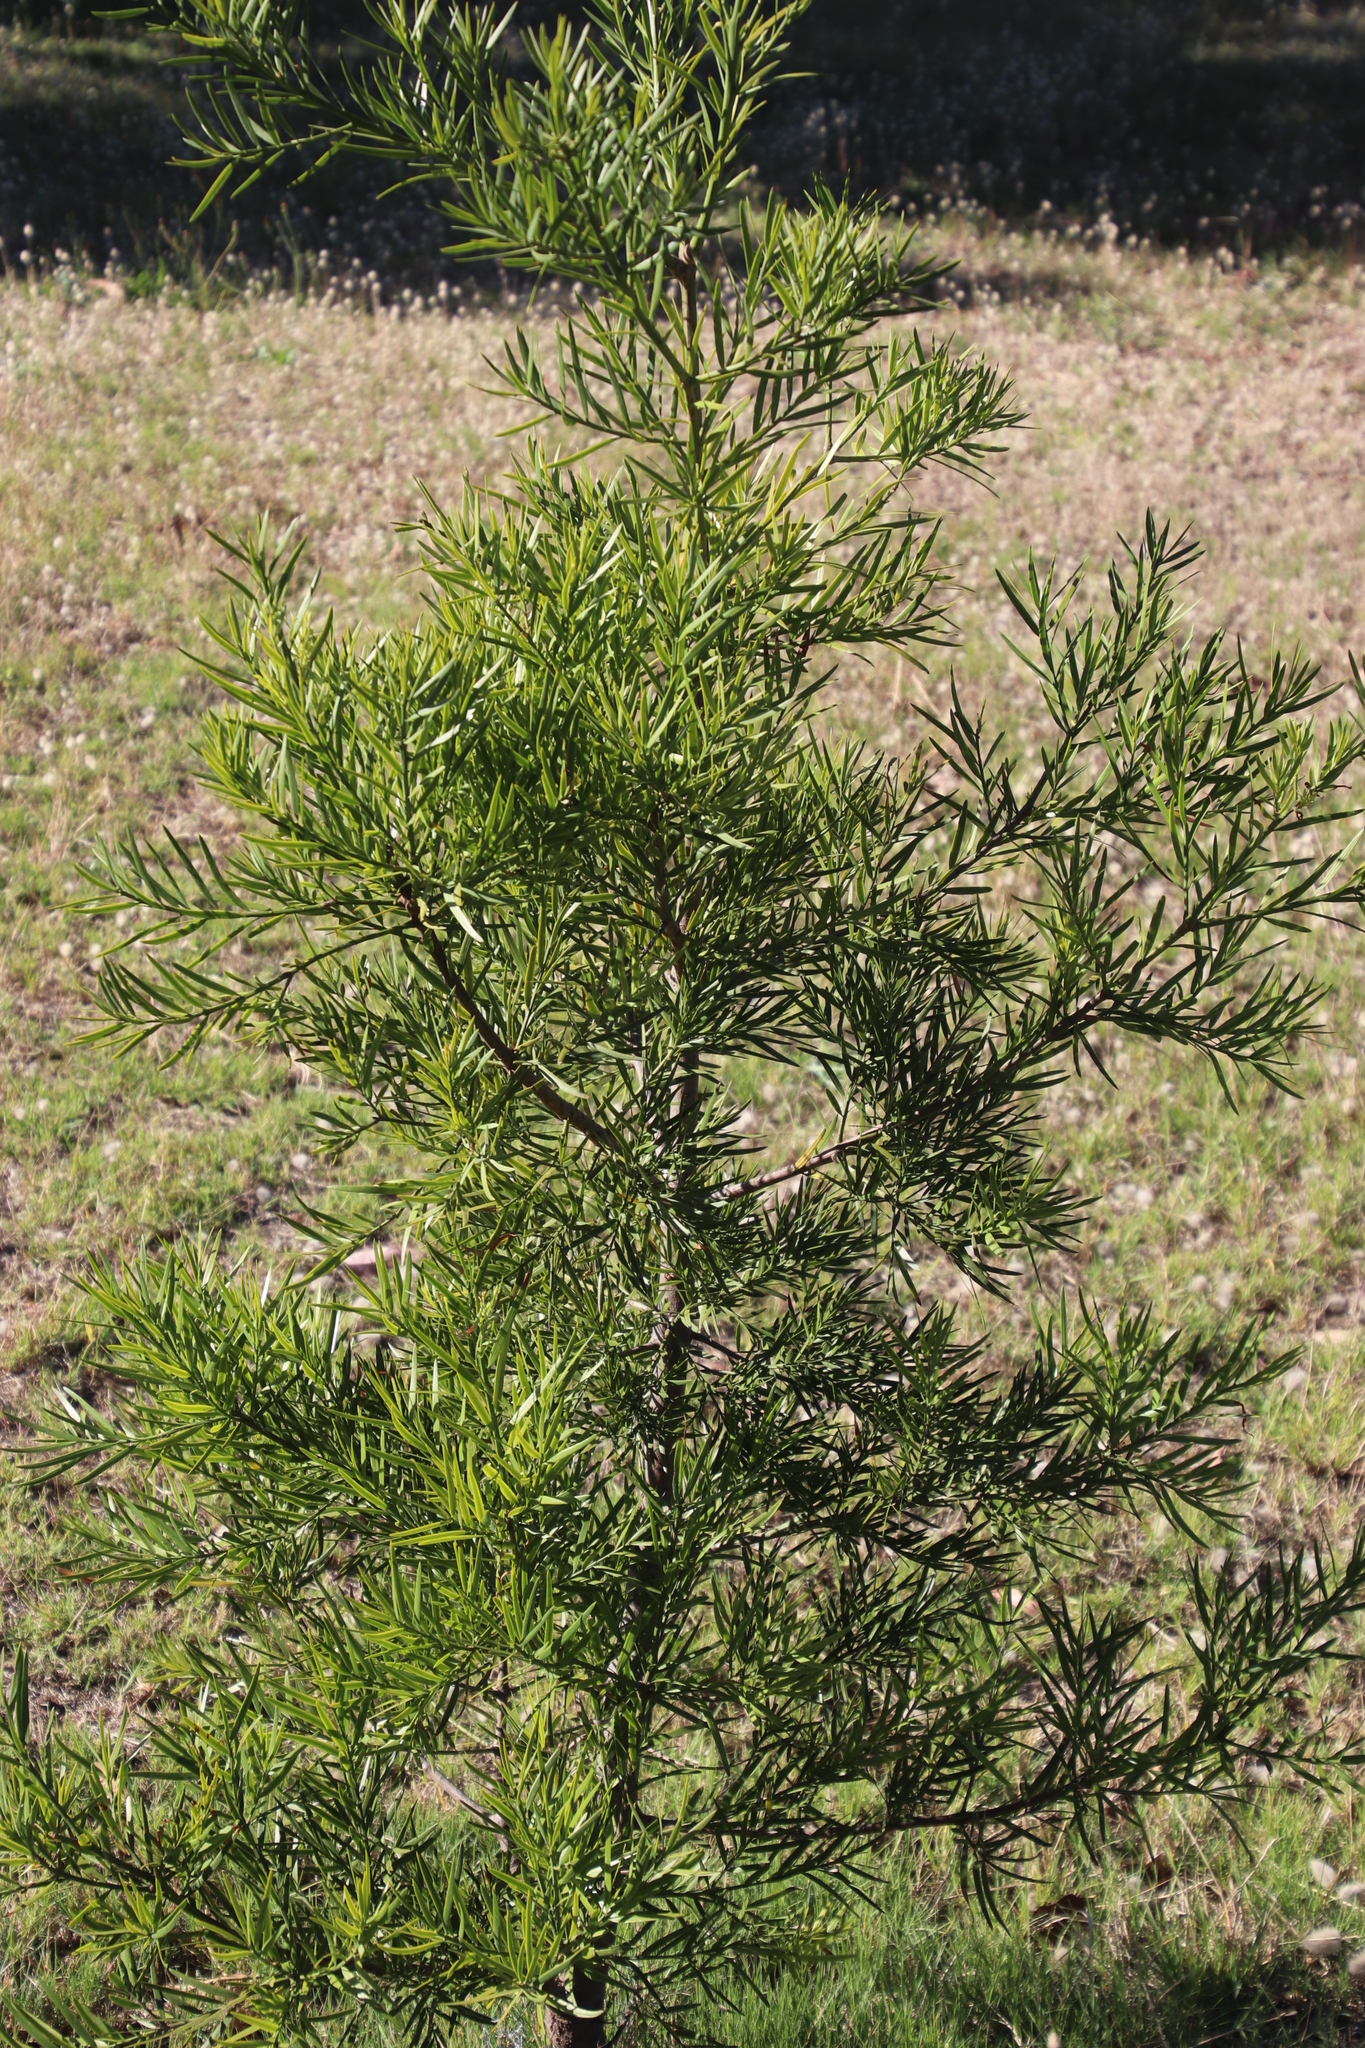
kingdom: Plantae
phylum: Tracheophyta
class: Pinopsida
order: Pinales
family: Podocarpaceae
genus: Afrocarpus
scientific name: Afrocarpus falcatus
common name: Bastard yellowwood
